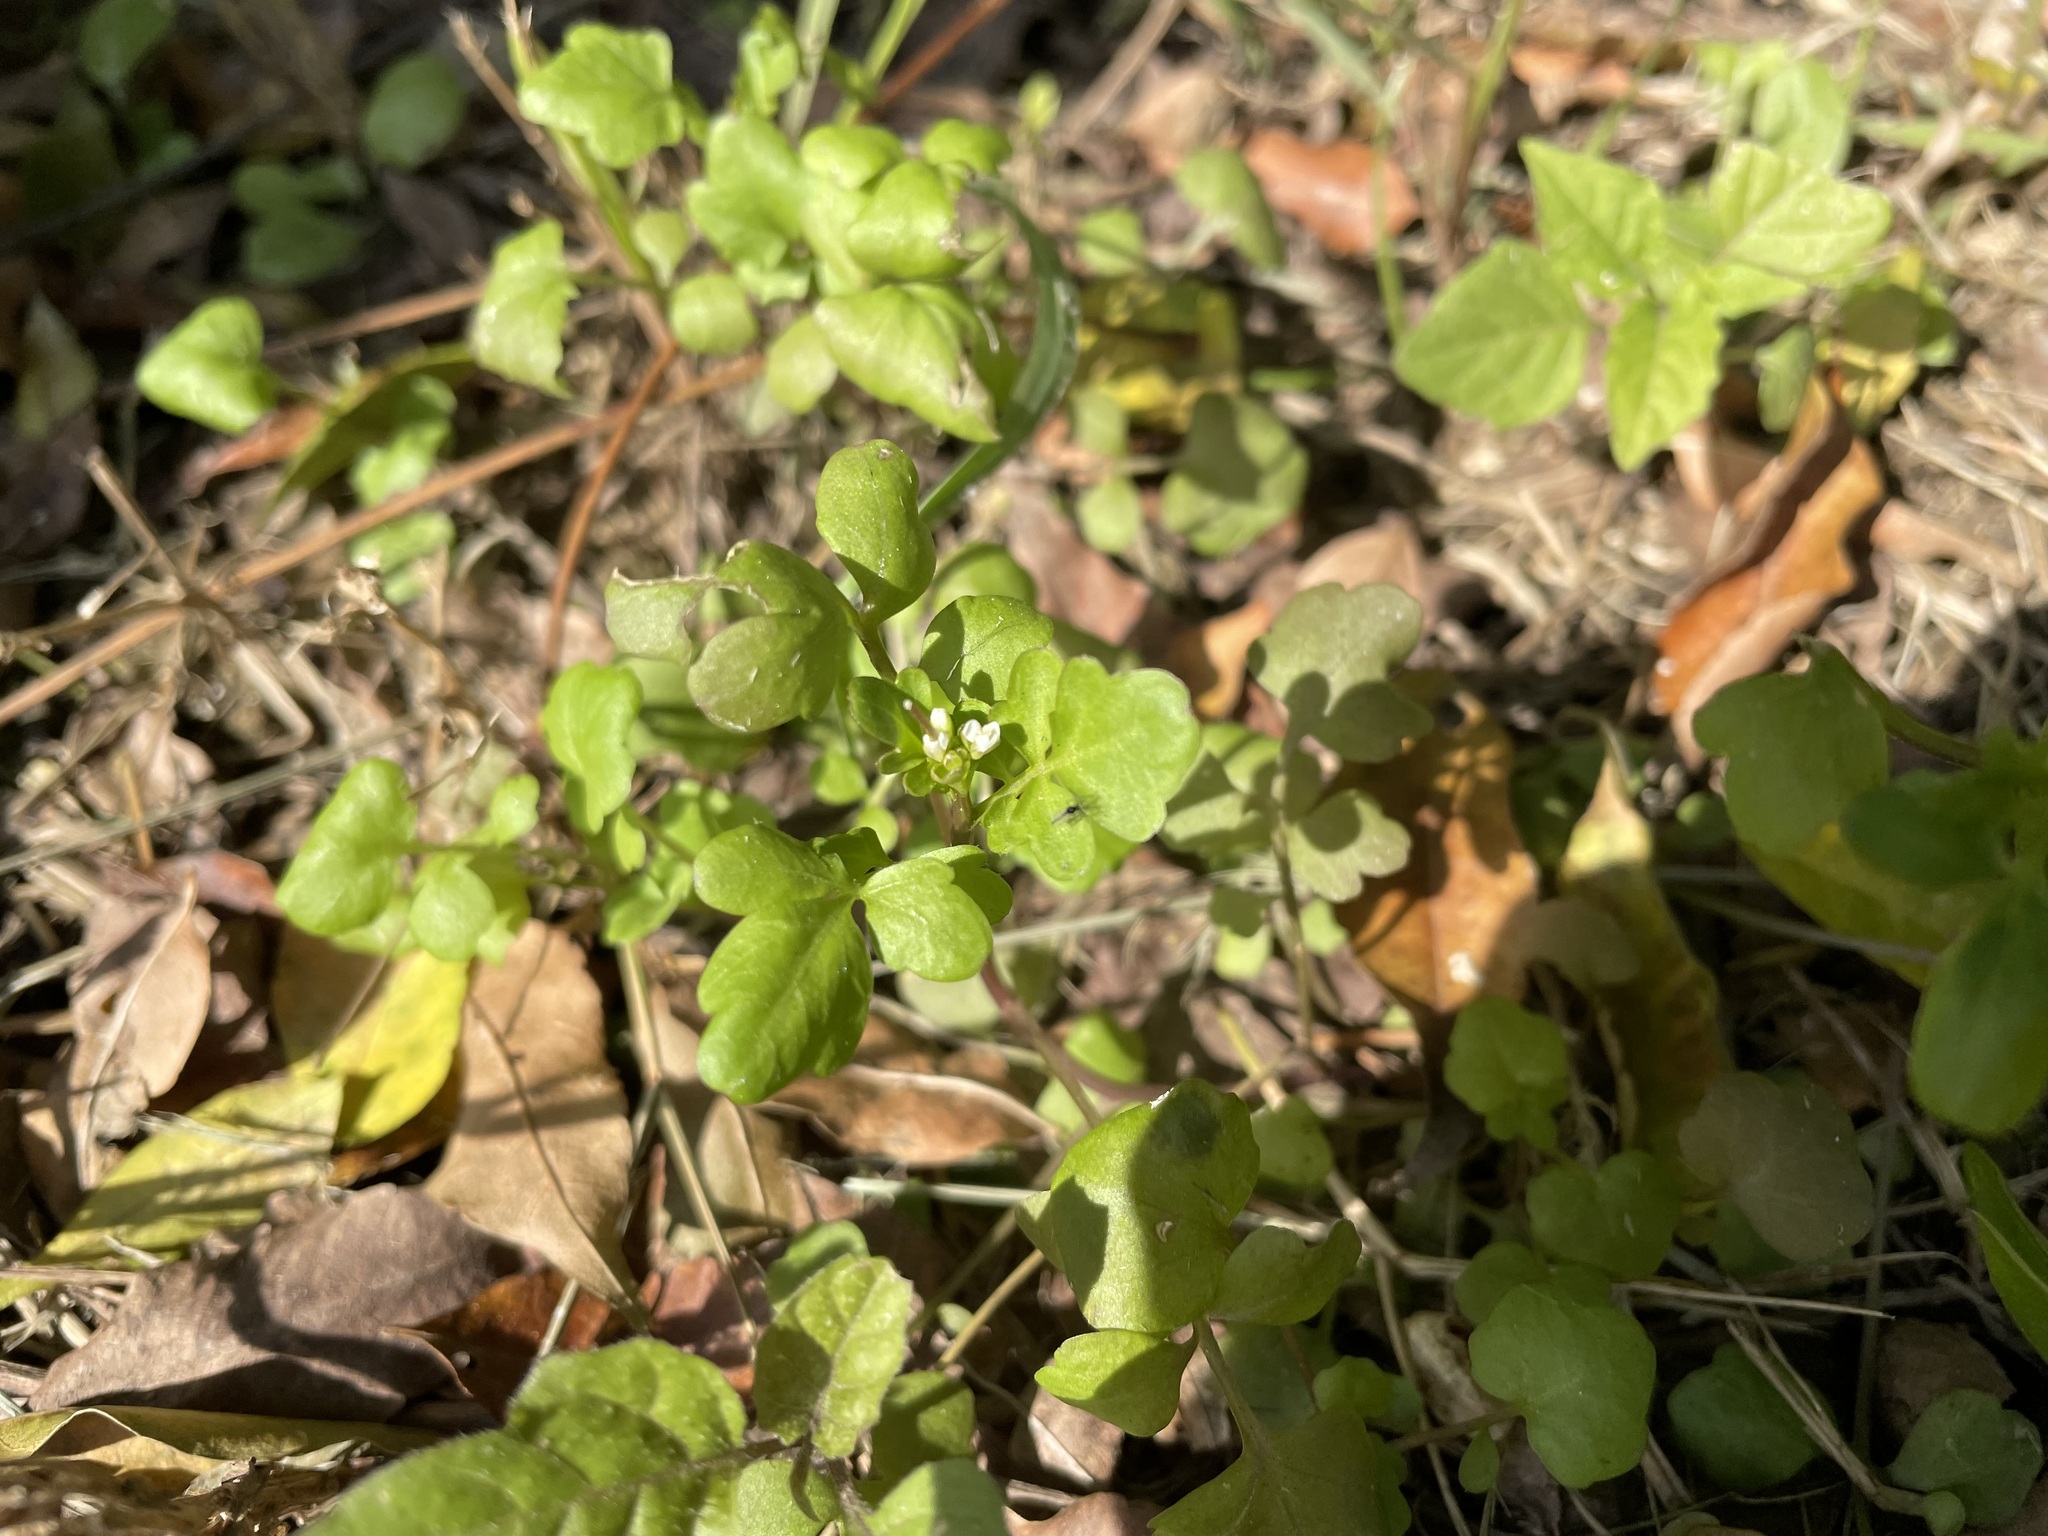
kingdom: Plantae
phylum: Tracheophyta
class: Magnoliopsida
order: Brassicales
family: Brassicaceae
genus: Cardamine
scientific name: Cardamine flexuosa
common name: Woodland bittercress
